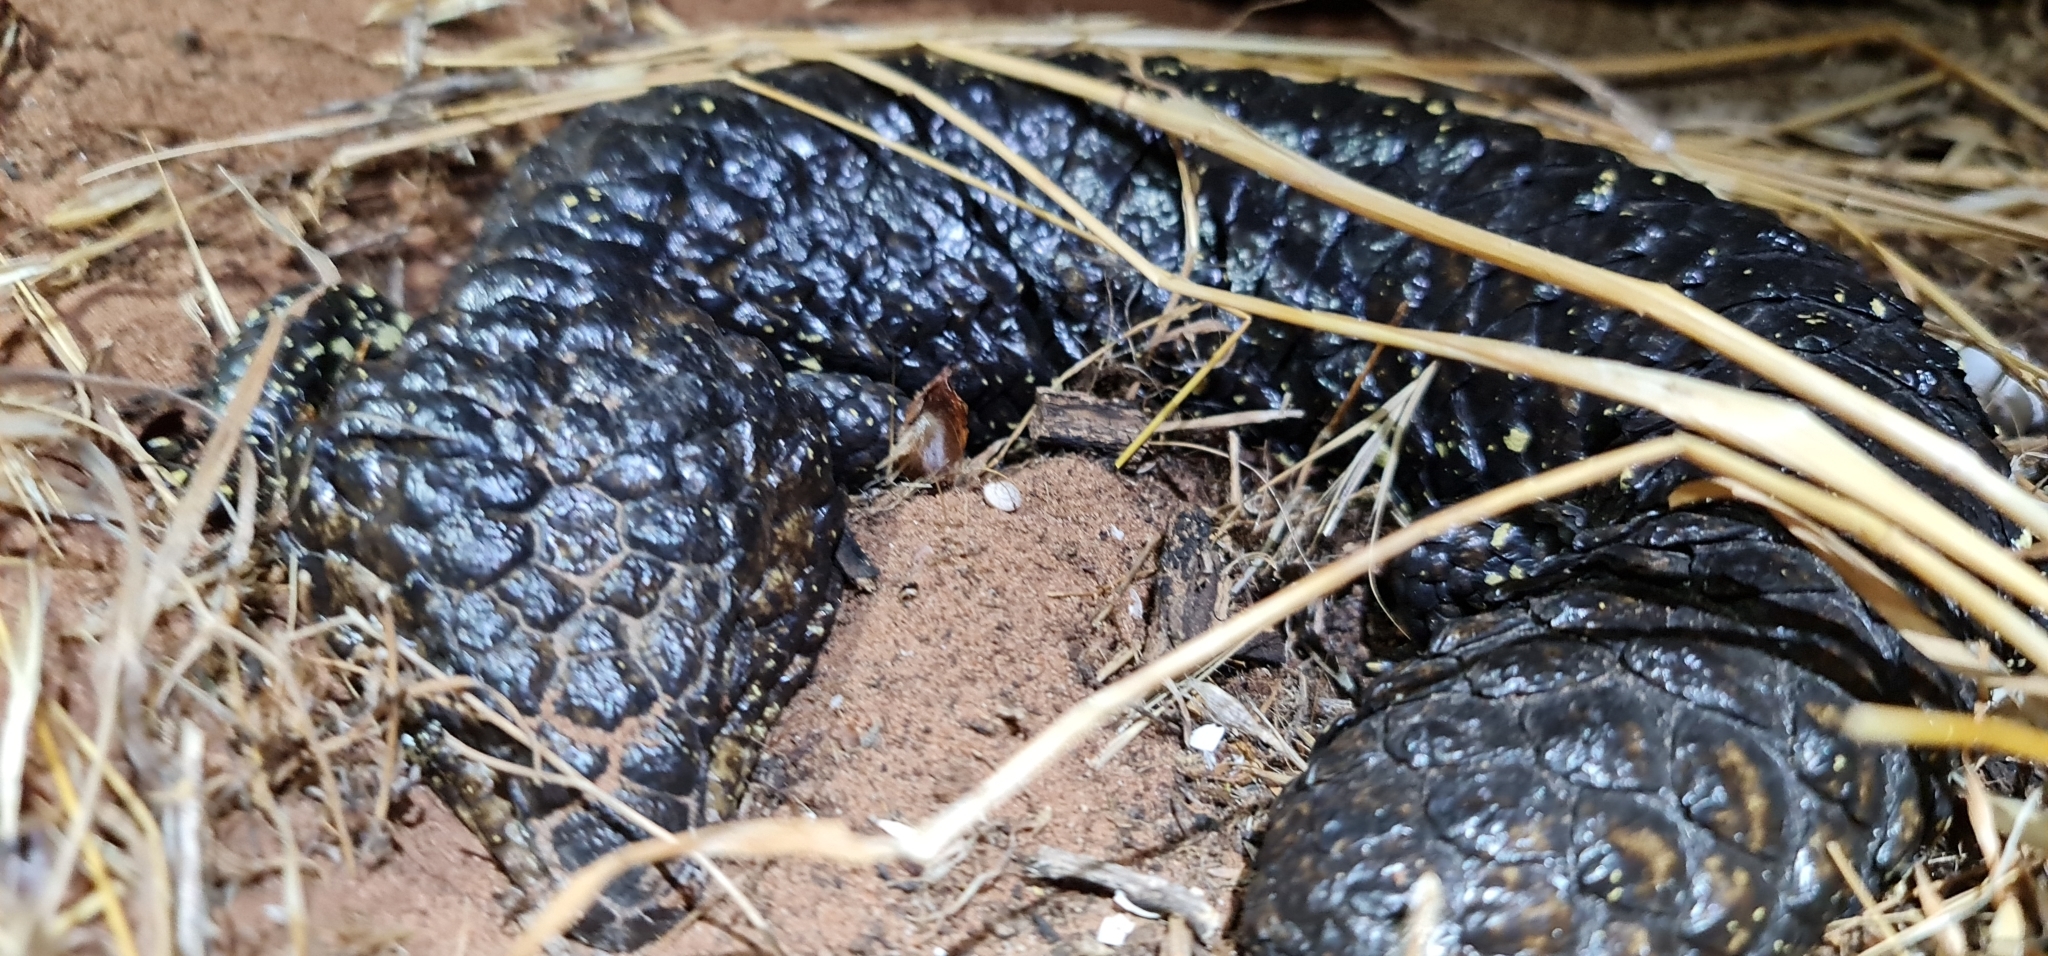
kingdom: Animalia
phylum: Chordata
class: Squamata
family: Scincidae
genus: Tiliqua
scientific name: Tiliqua rugosa
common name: Pinecone lizard
